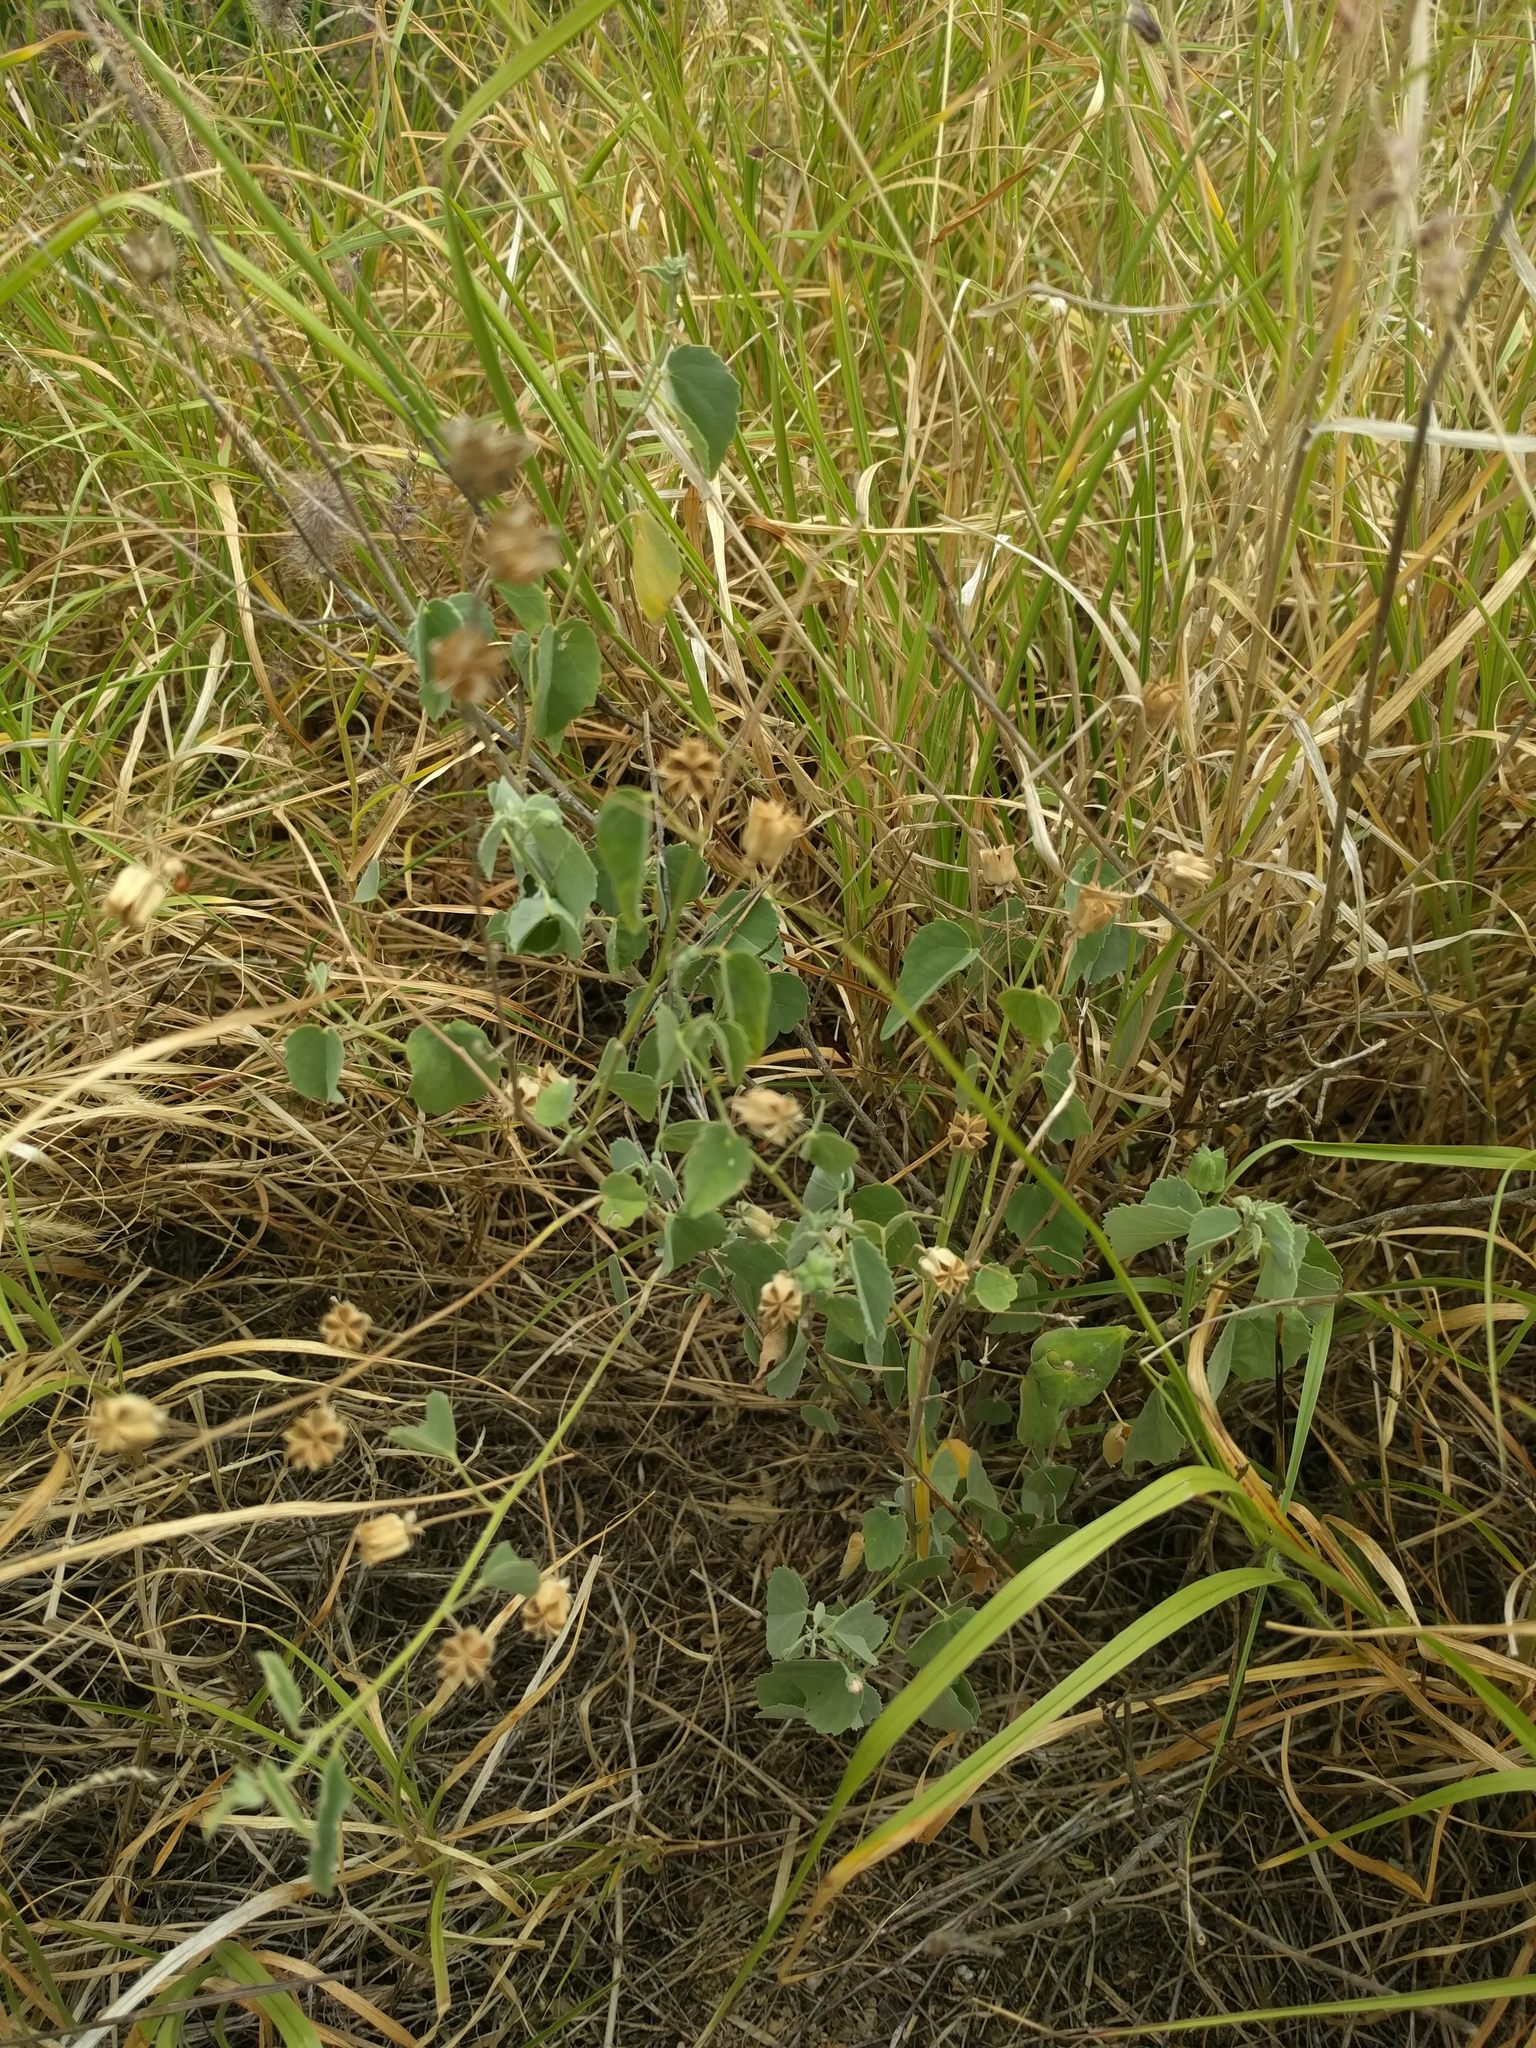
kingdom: Plantae
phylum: Tracheophyta
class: Magnoliopsida
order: Malvales
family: Malvaceae
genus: Abutilon
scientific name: Abutilon incanum
